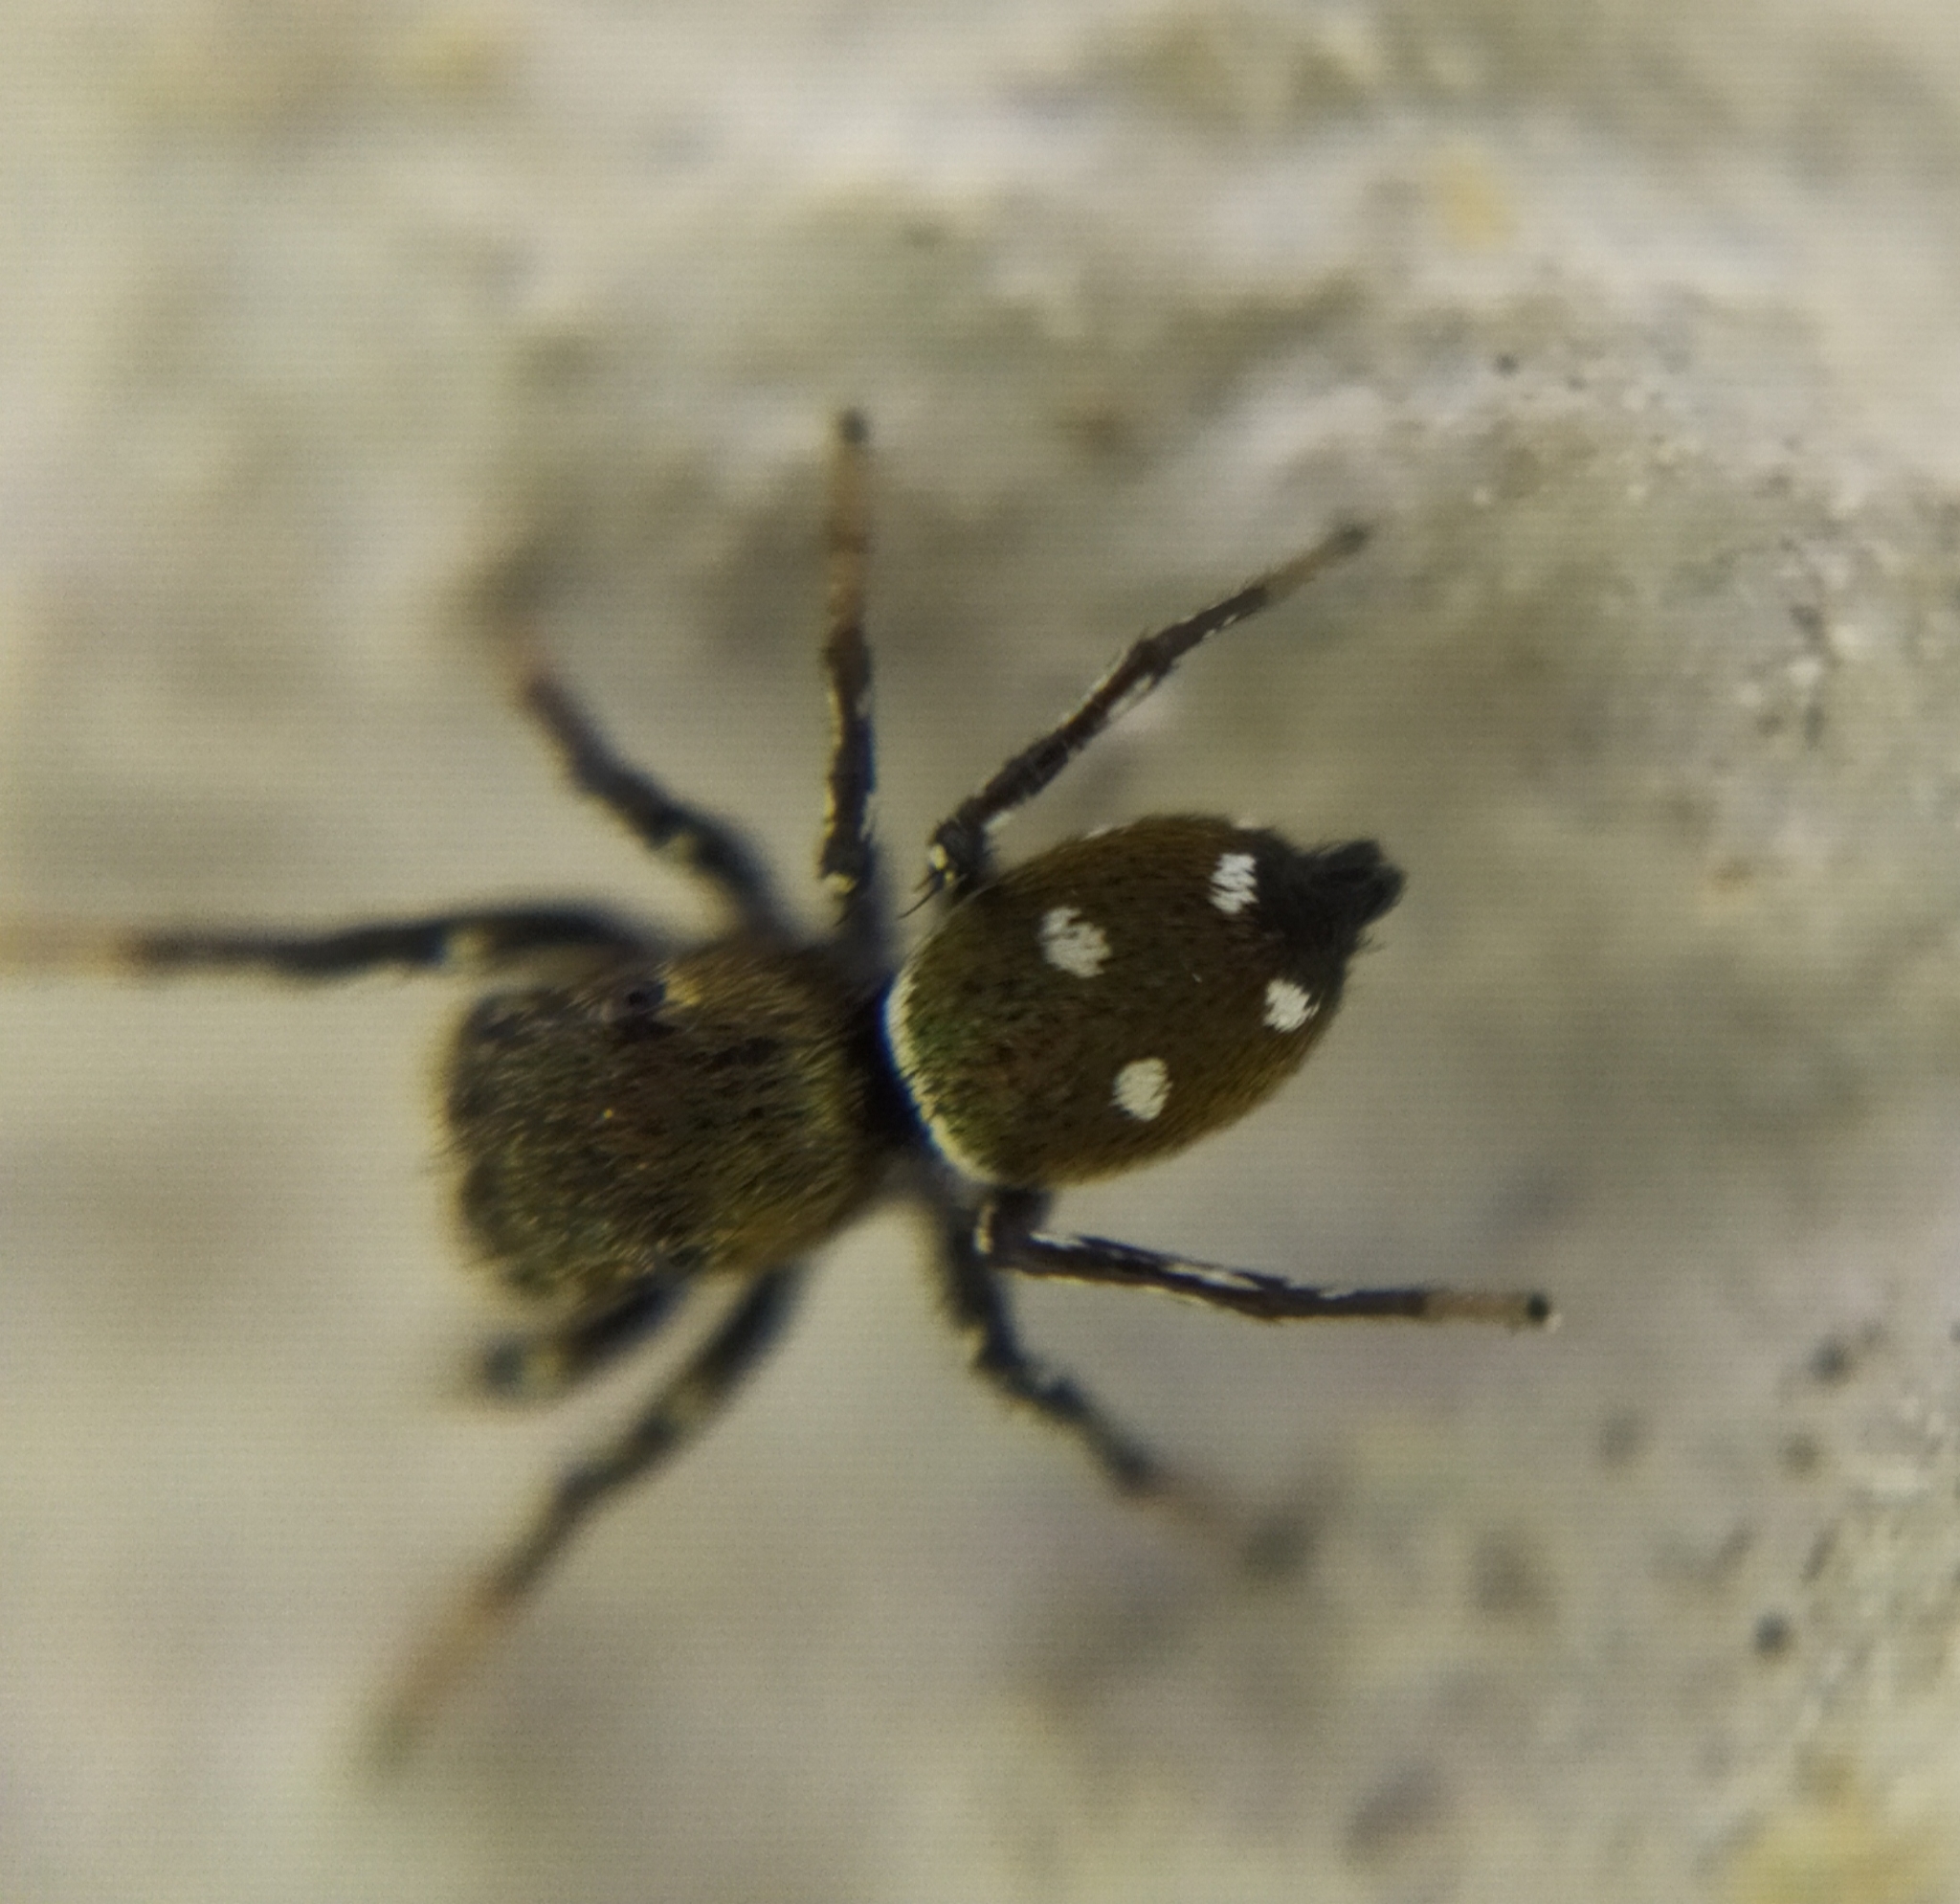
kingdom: Animalia
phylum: Arthropoda
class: Arachnida
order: Araneae
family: Salticidae
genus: Heliophanus
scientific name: Heliophanus kochii
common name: Sun jumping spider
